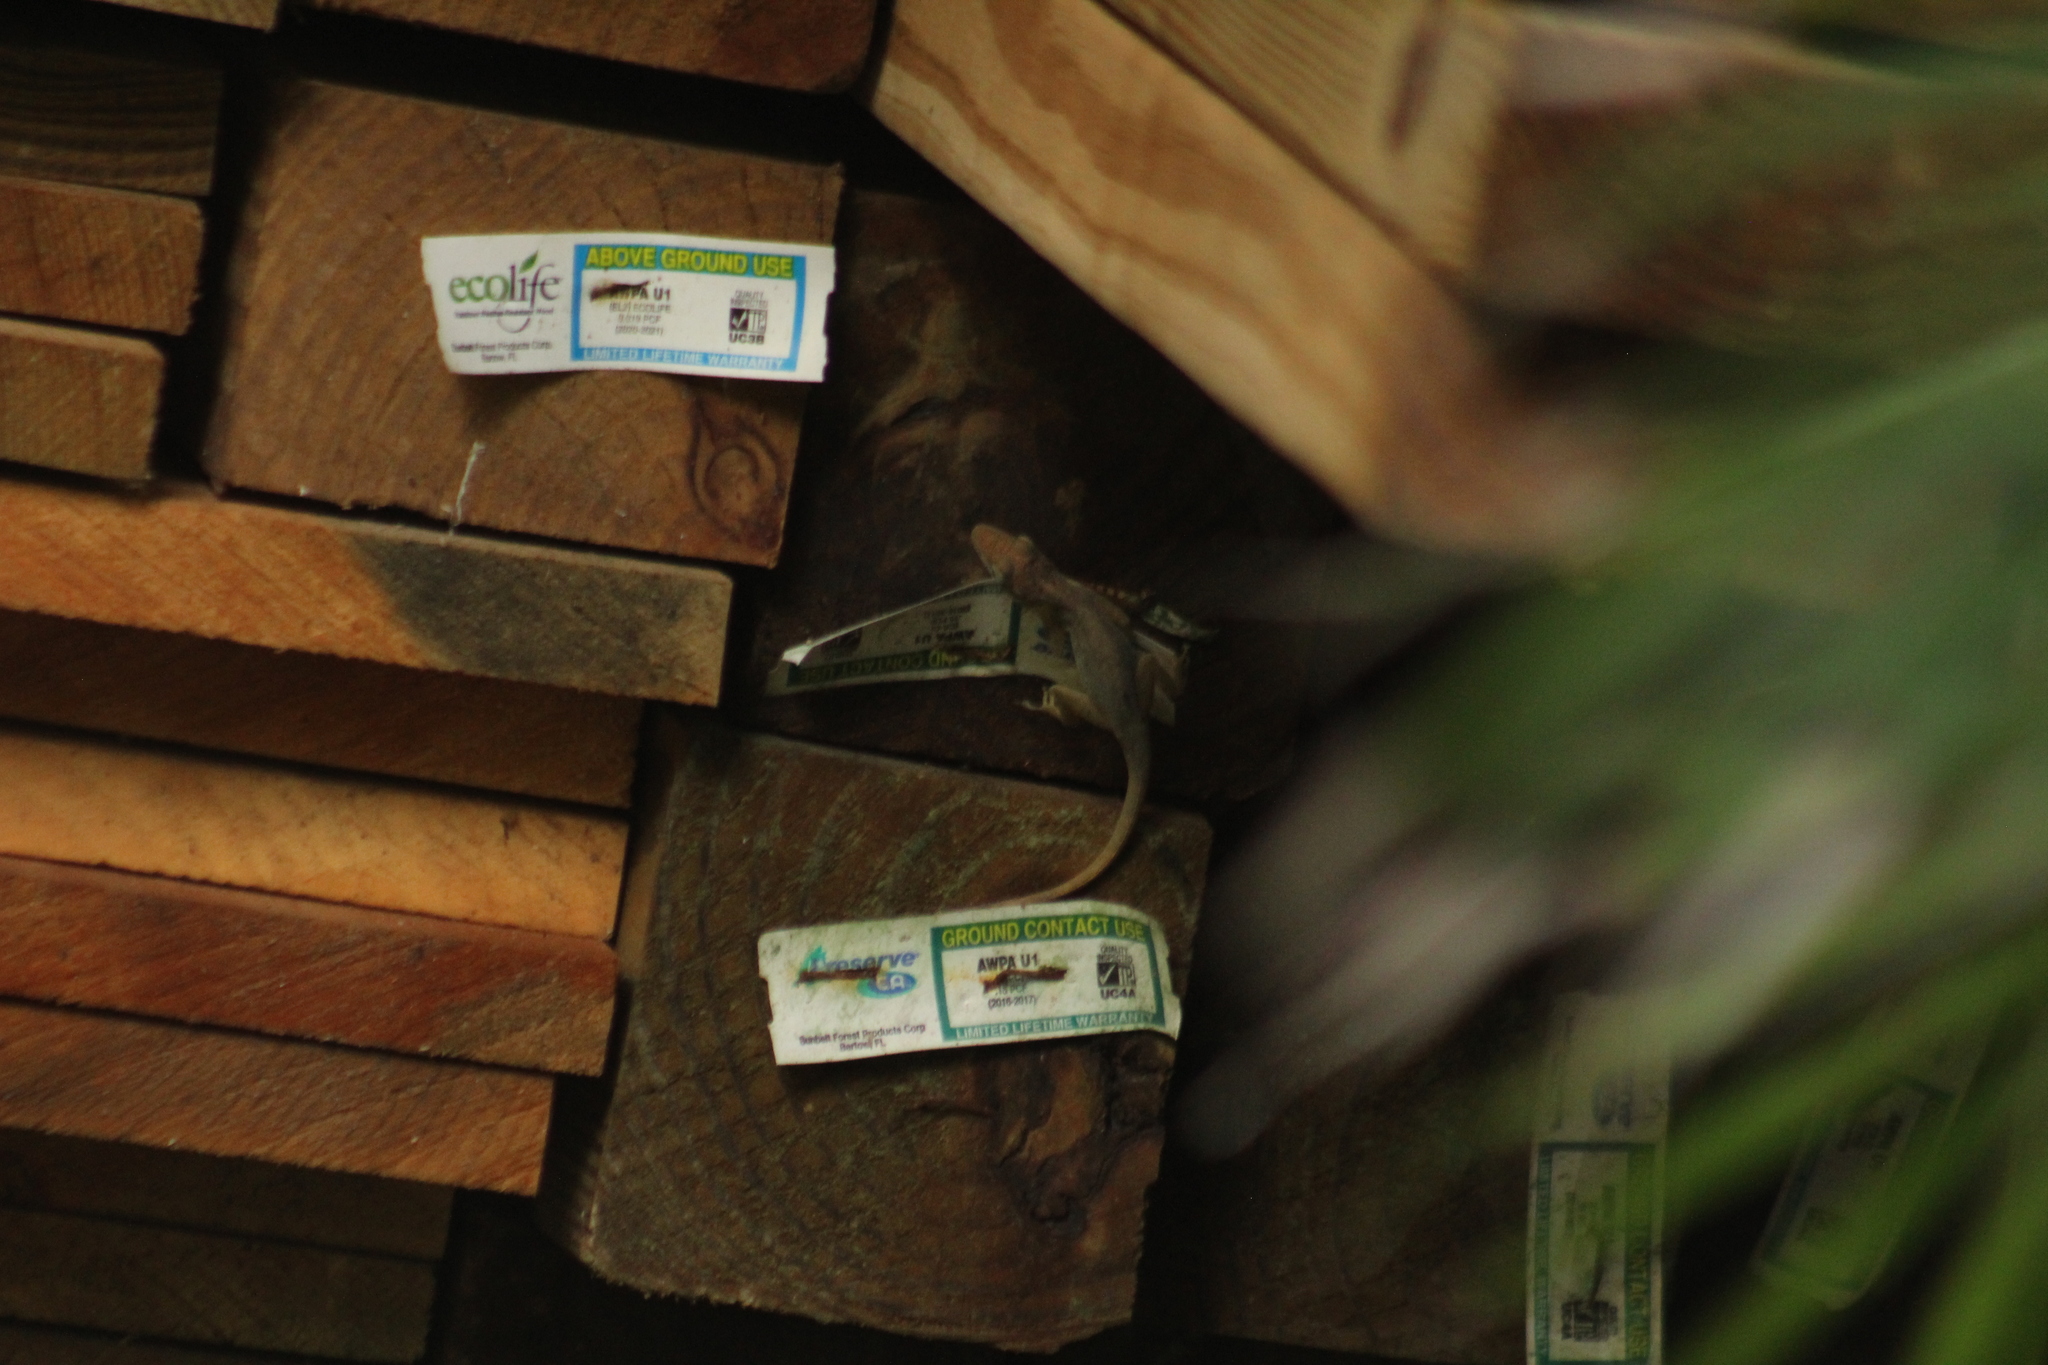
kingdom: Animalia
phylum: Chordata
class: Squamata
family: Dactyloidae
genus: Anolis
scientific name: Anolis sabanus
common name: Saba anole
